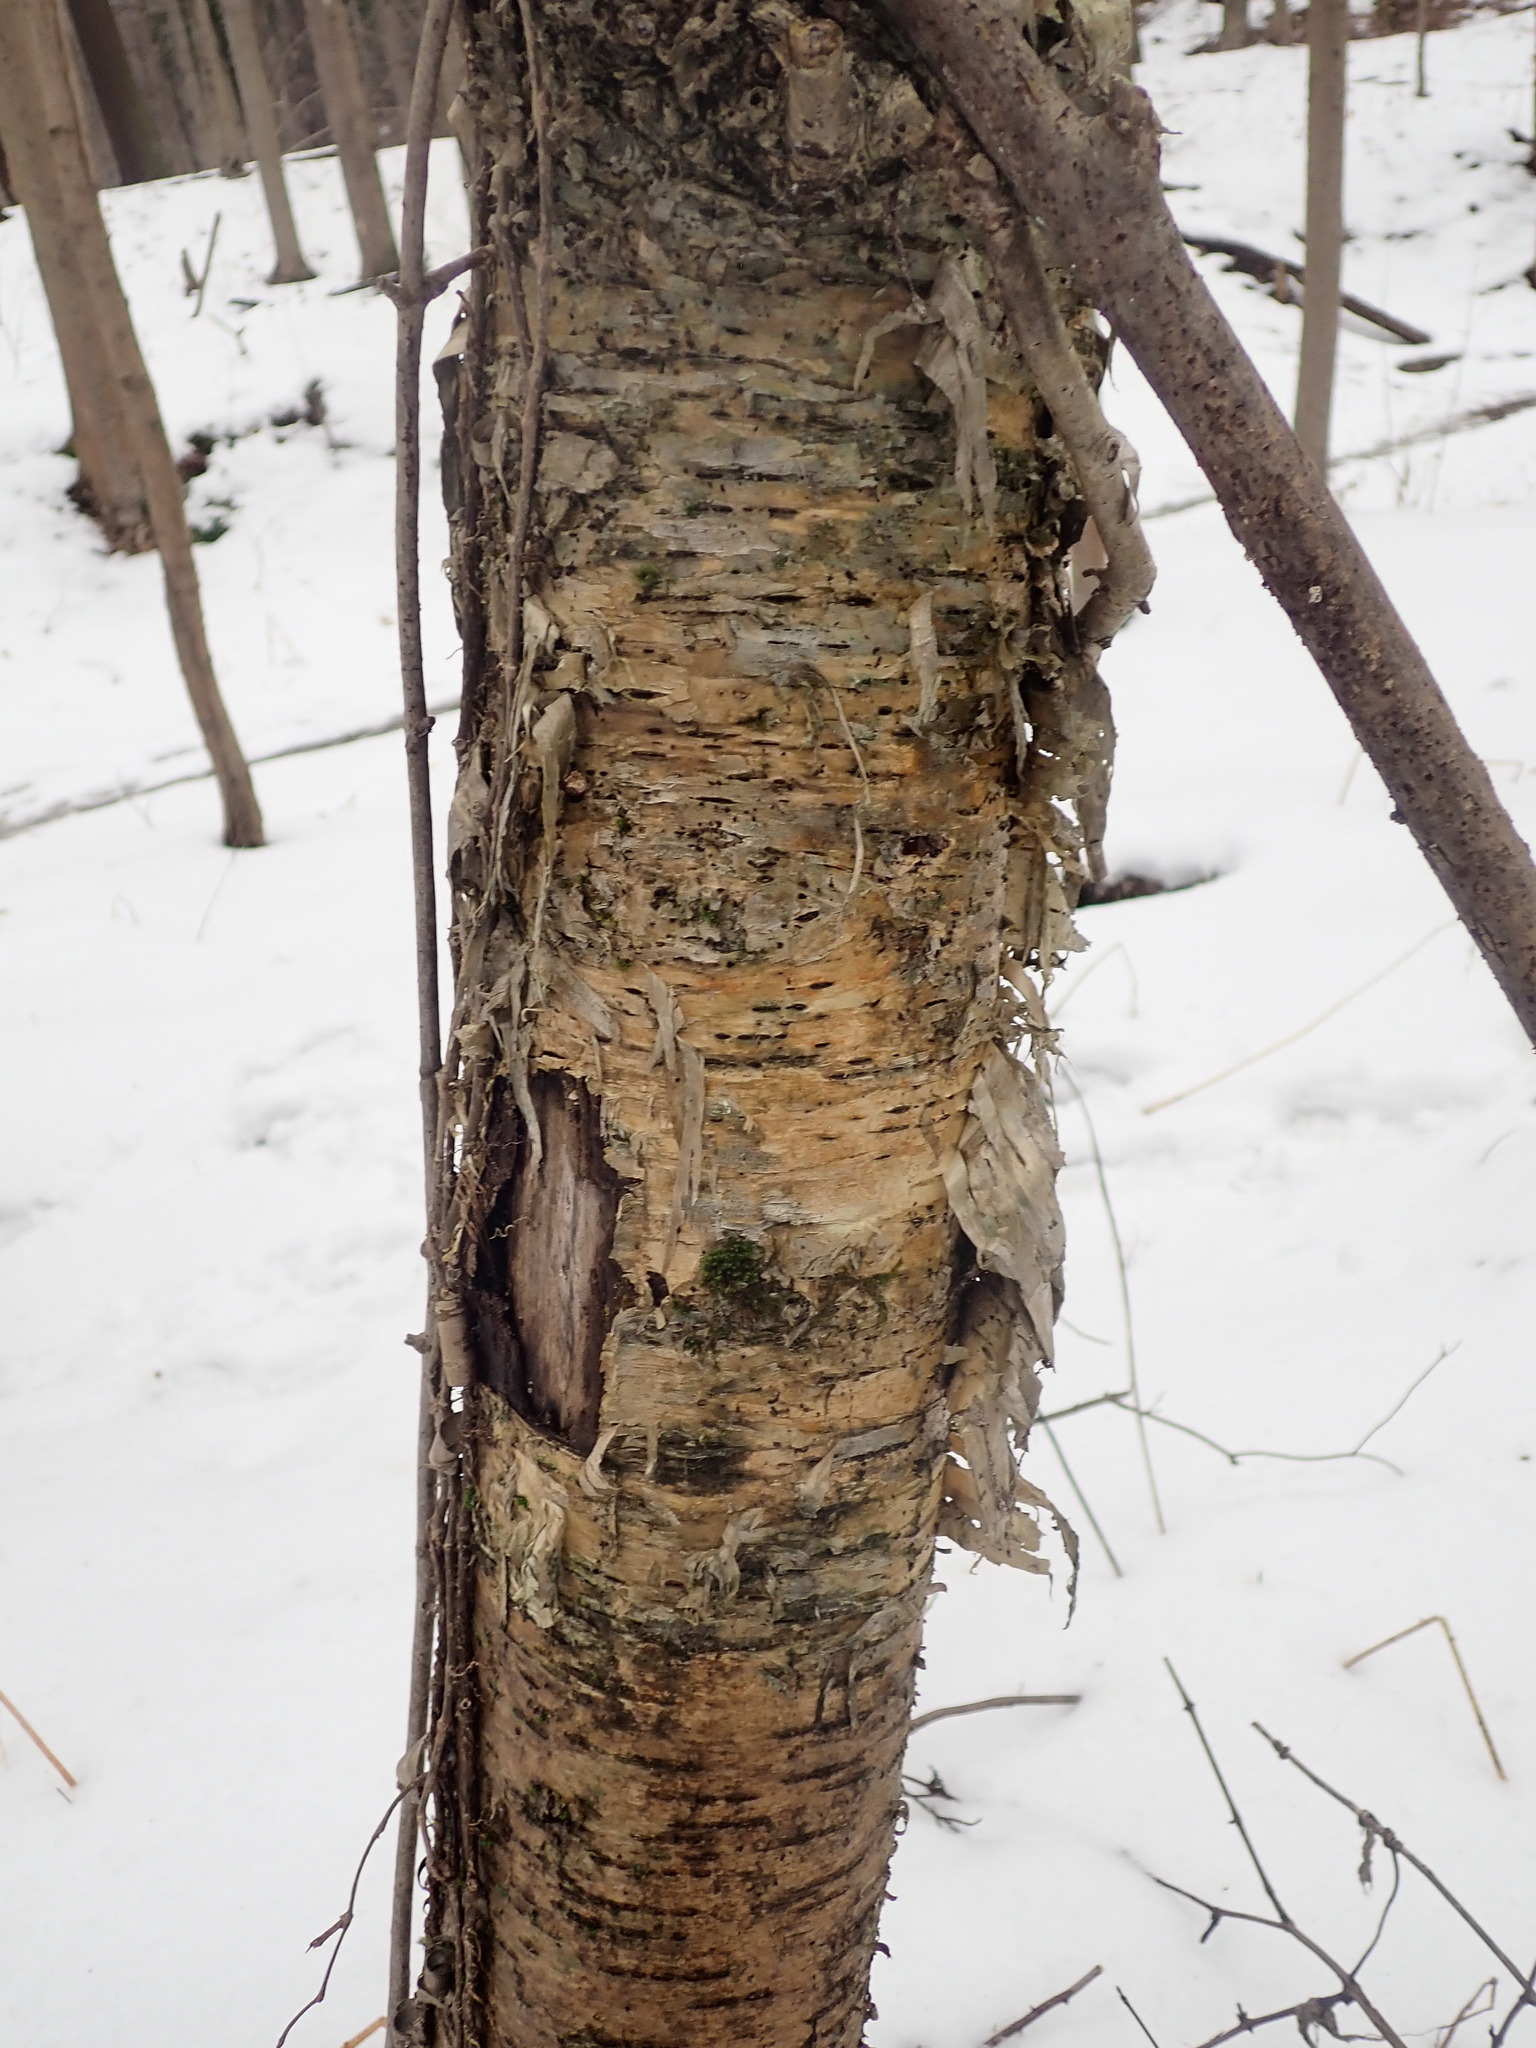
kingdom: Plantae
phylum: Tracheophyta
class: Magnoliopsida
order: Fagales
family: Betulaceae
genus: Betula
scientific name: Betula alleghaniensis
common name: Yellow birch
